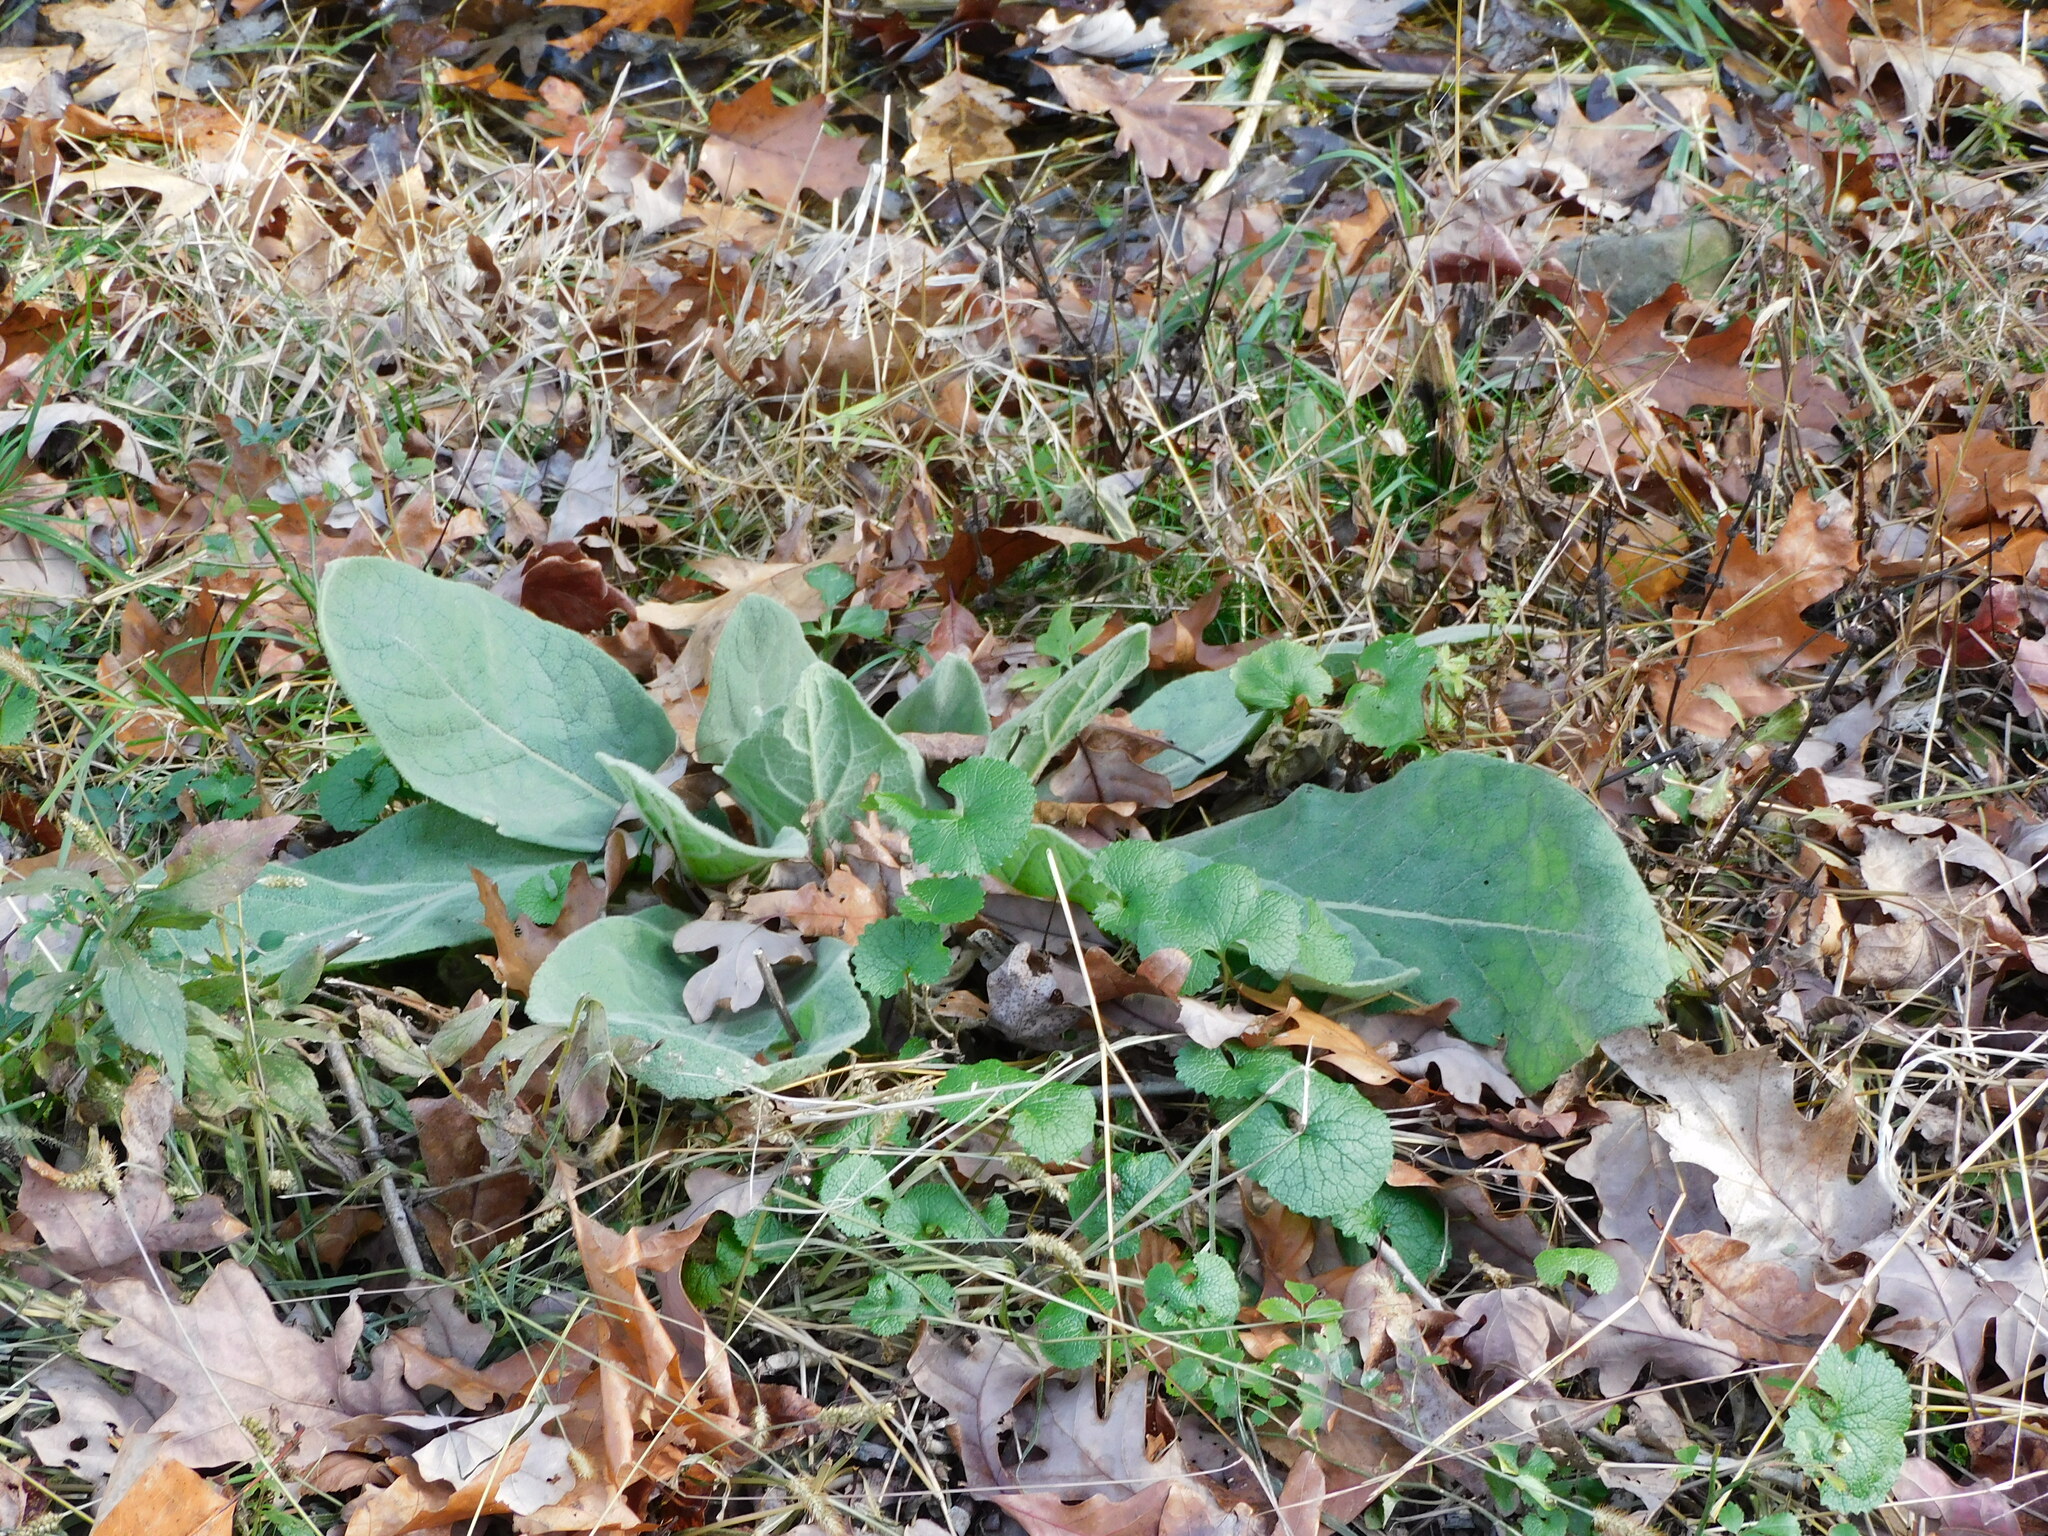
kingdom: Plantae
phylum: Tracheophyta
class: Magnoliopsida
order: Lamiales
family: Scrophulariaceae
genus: Verbascum
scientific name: Verbascum thapsus
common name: Common mullein
